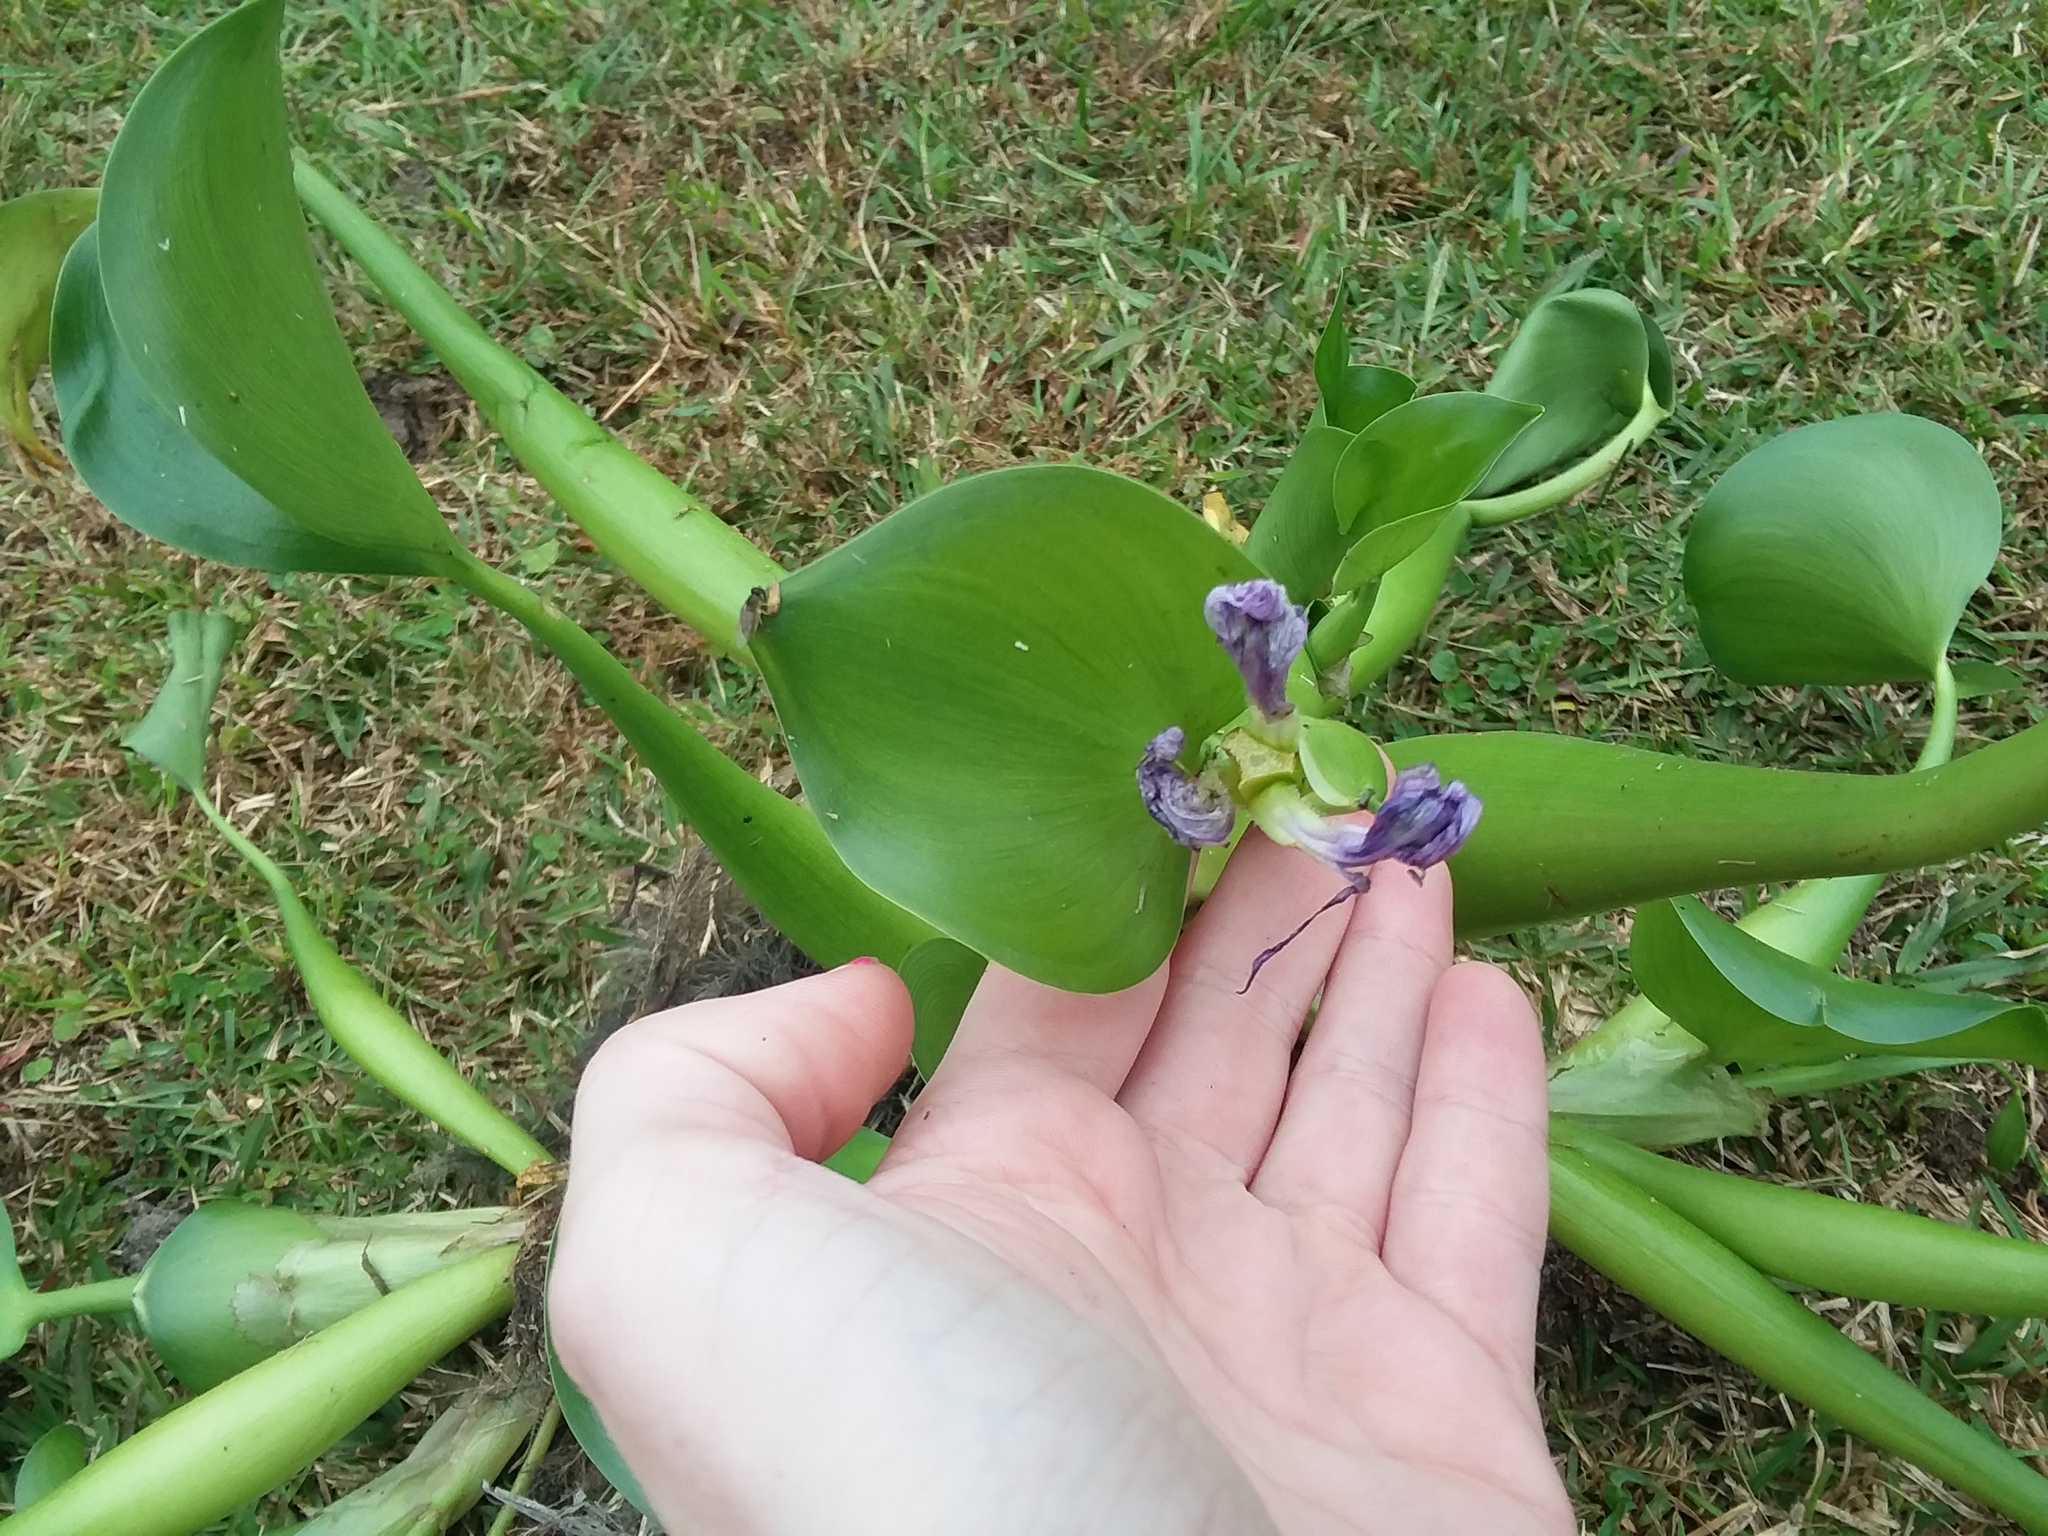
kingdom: Plantae
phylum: Tracheophyta
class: Liliopsida
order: Commelinales
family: Pontederiaceae
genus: Pontederia
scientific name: Pontederia crassipes
